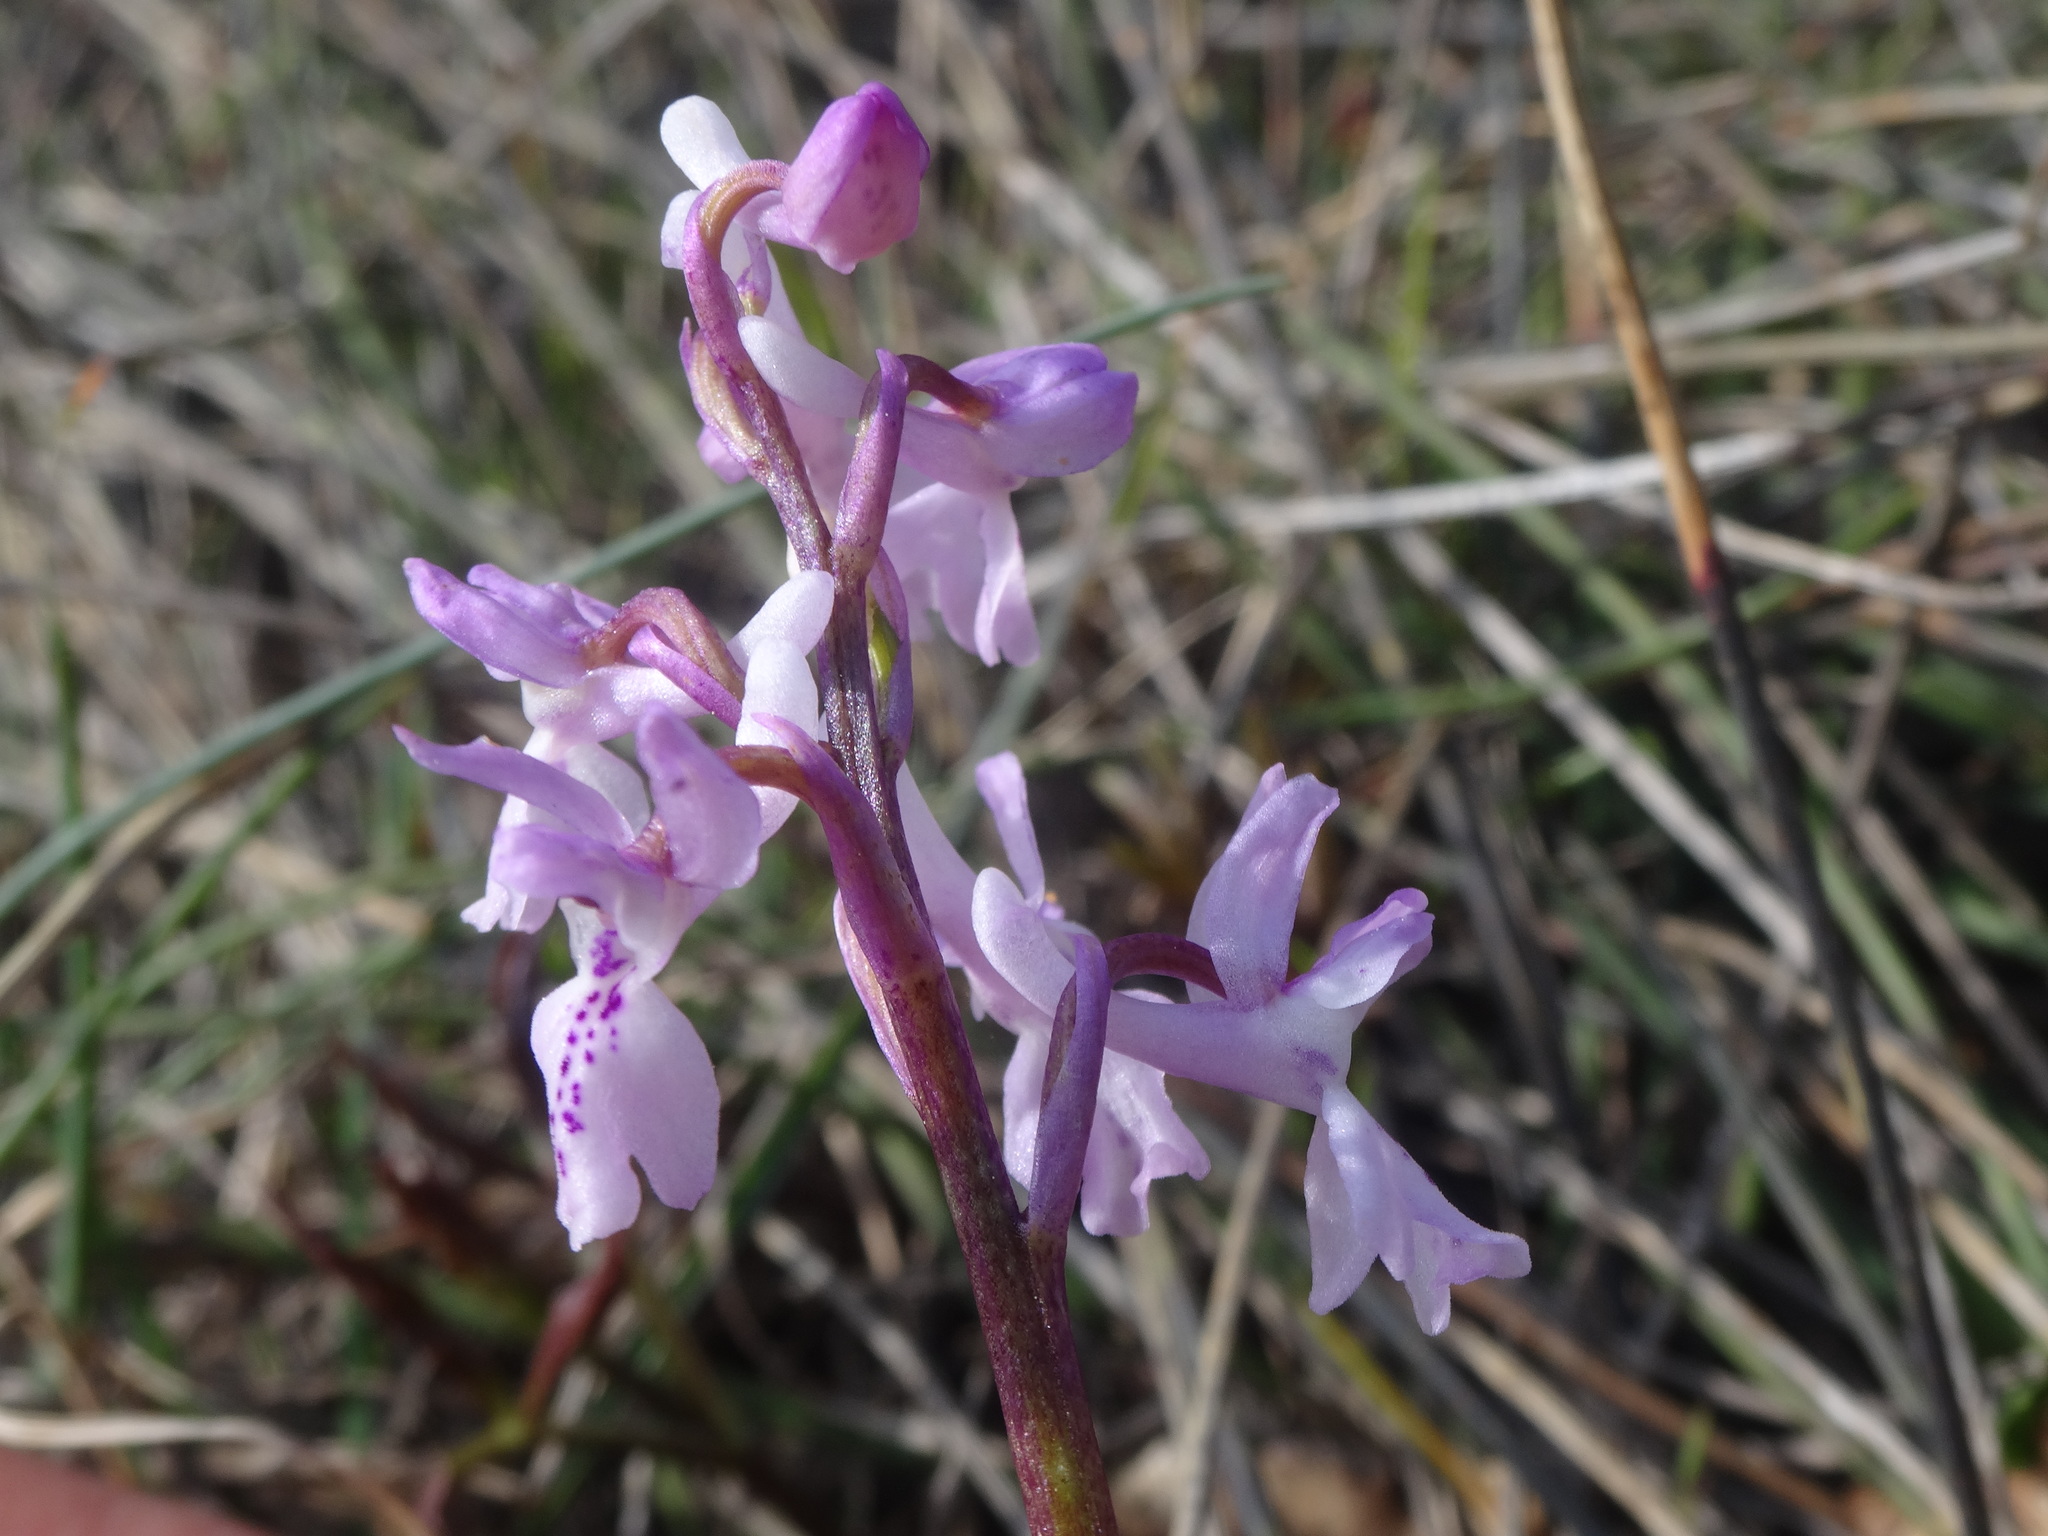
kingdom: Plantae
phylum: Tracheophyta
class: Liliopsida
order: Asparagales
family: Orchidaceae
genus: Orchis
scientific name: Orchis olbiensis
